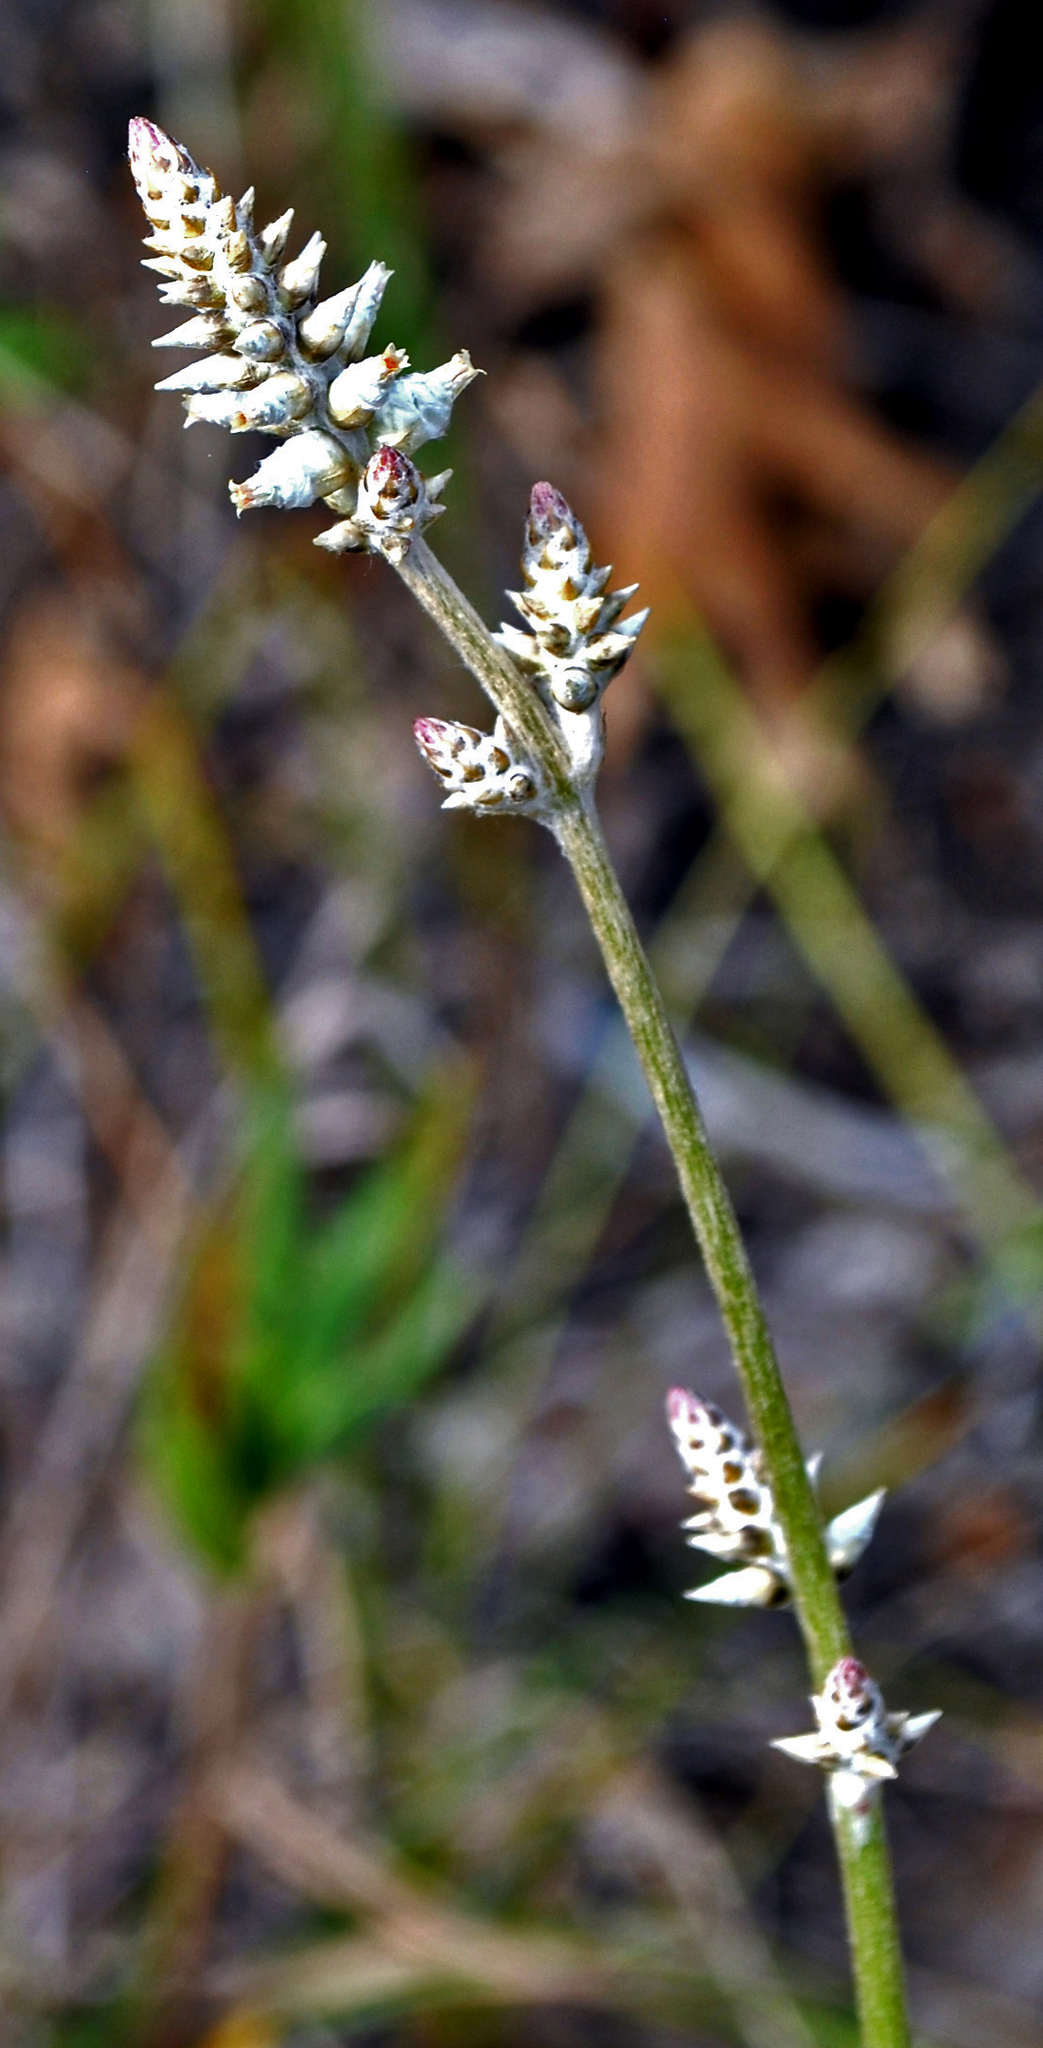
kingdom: Plantae
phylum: Tracheophyta
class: Magnoliopsida
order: Caryophyllales
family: Amaranthaceae
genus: Froelichia
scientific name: Froelichia floridana
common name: Florida snake-cotton
